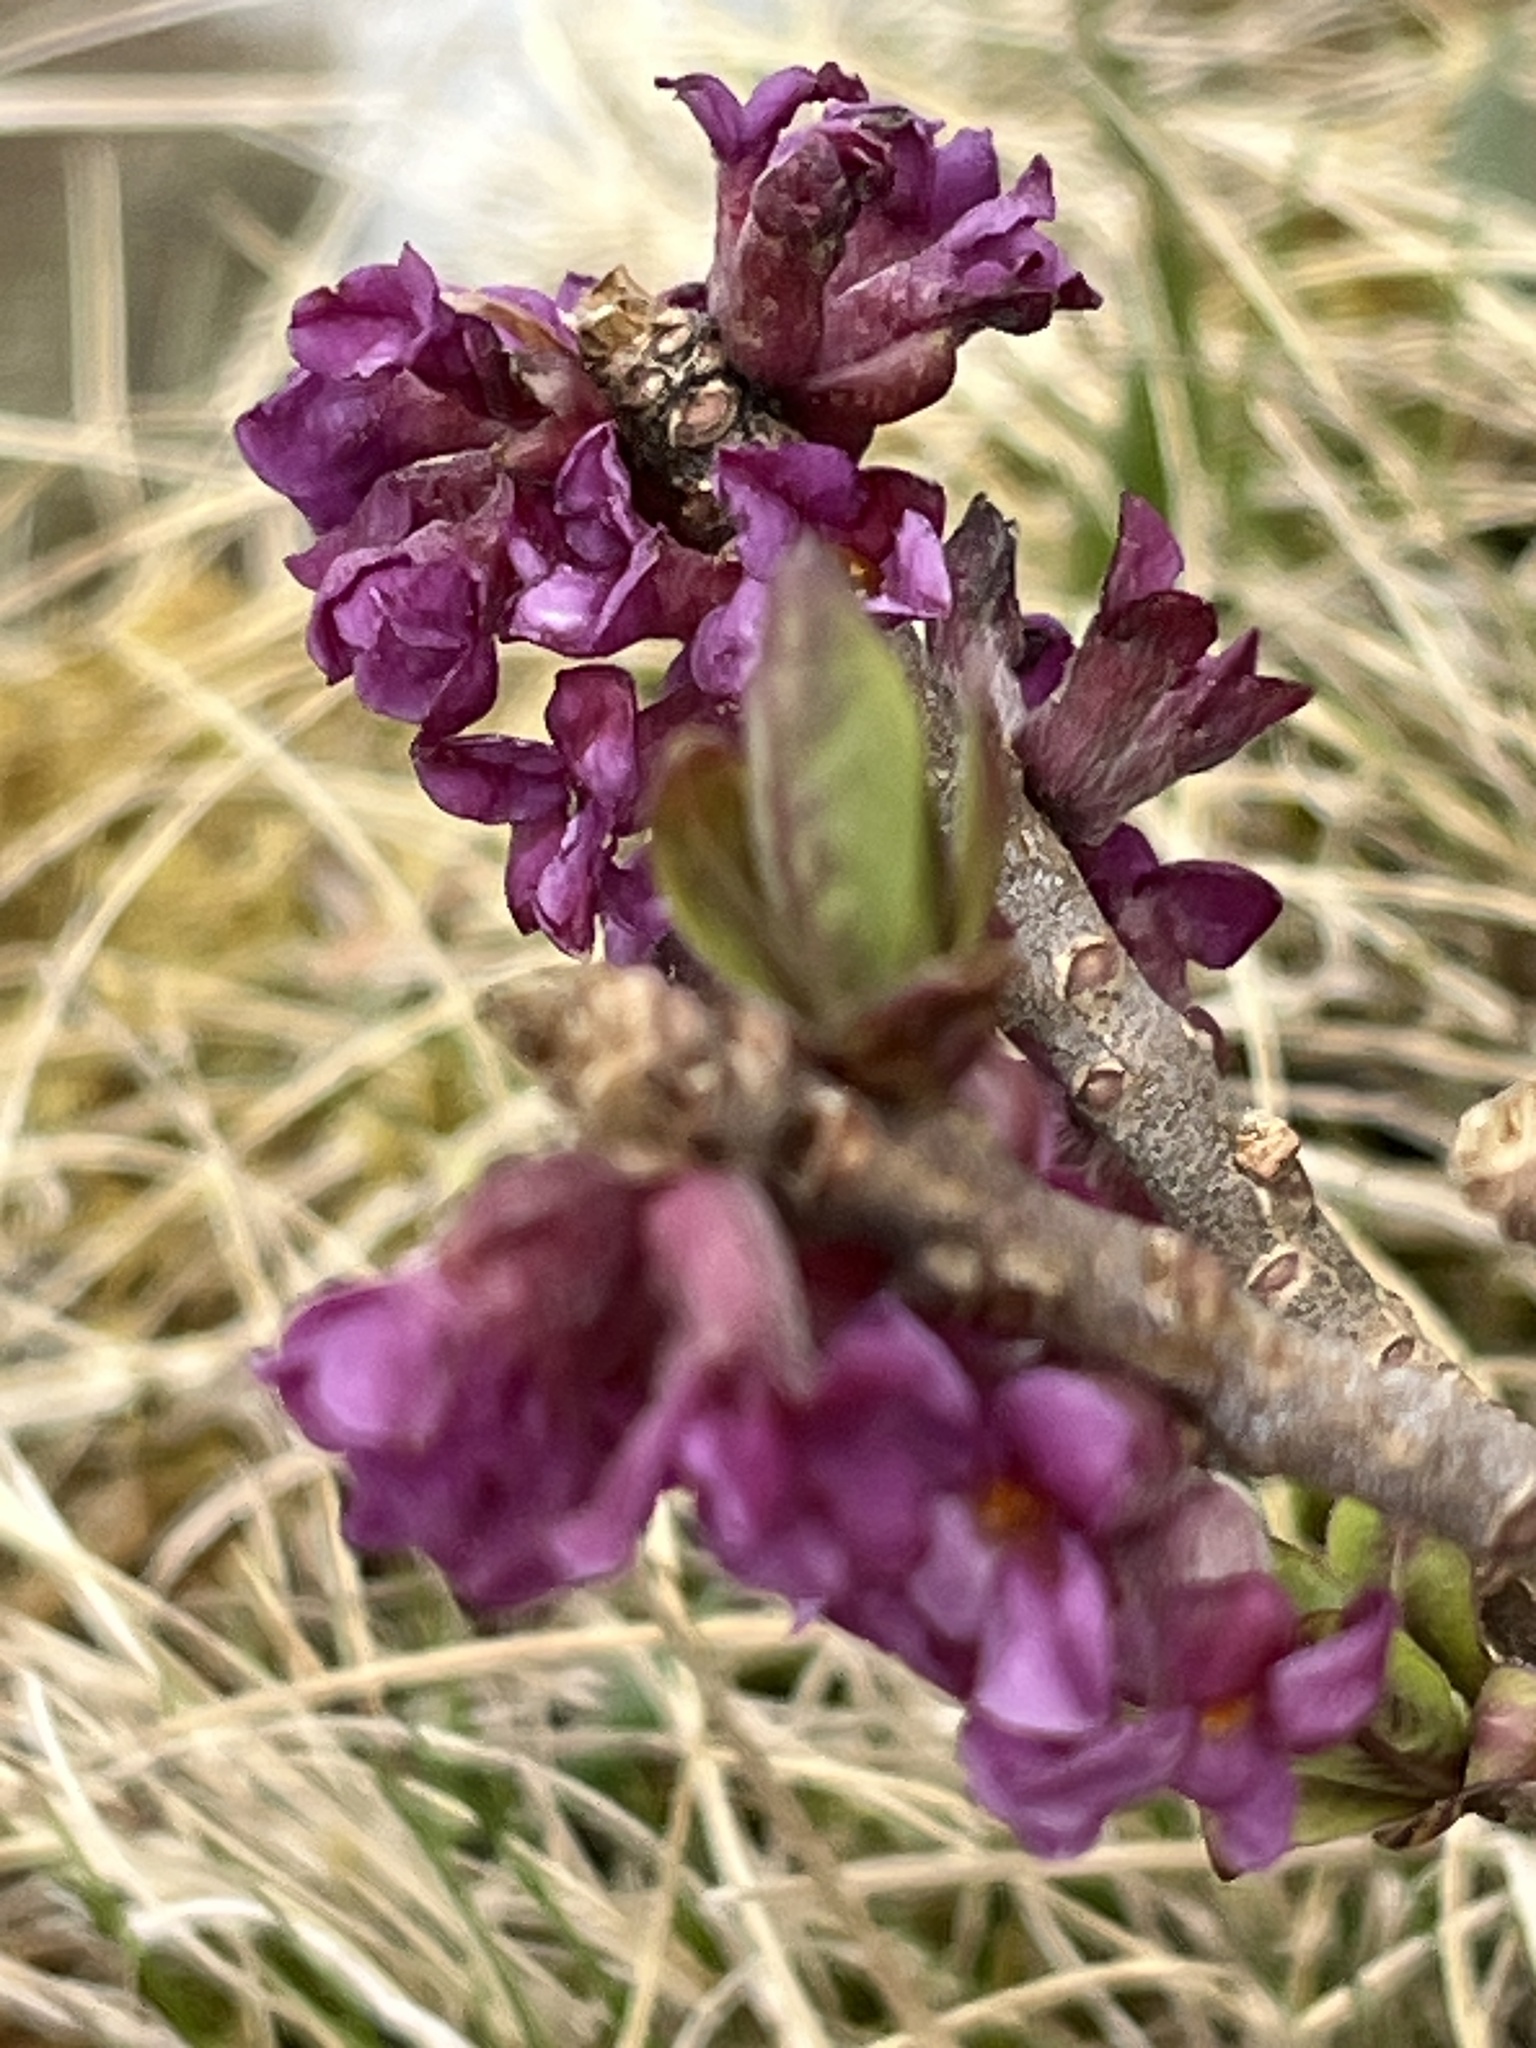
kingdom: Plantae
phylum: Tracheophyta
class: Magnoliopsida
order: Malvales
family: Thymelaeaceae
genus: Daphne
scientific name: Daphne mezereum
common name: Mezereon
